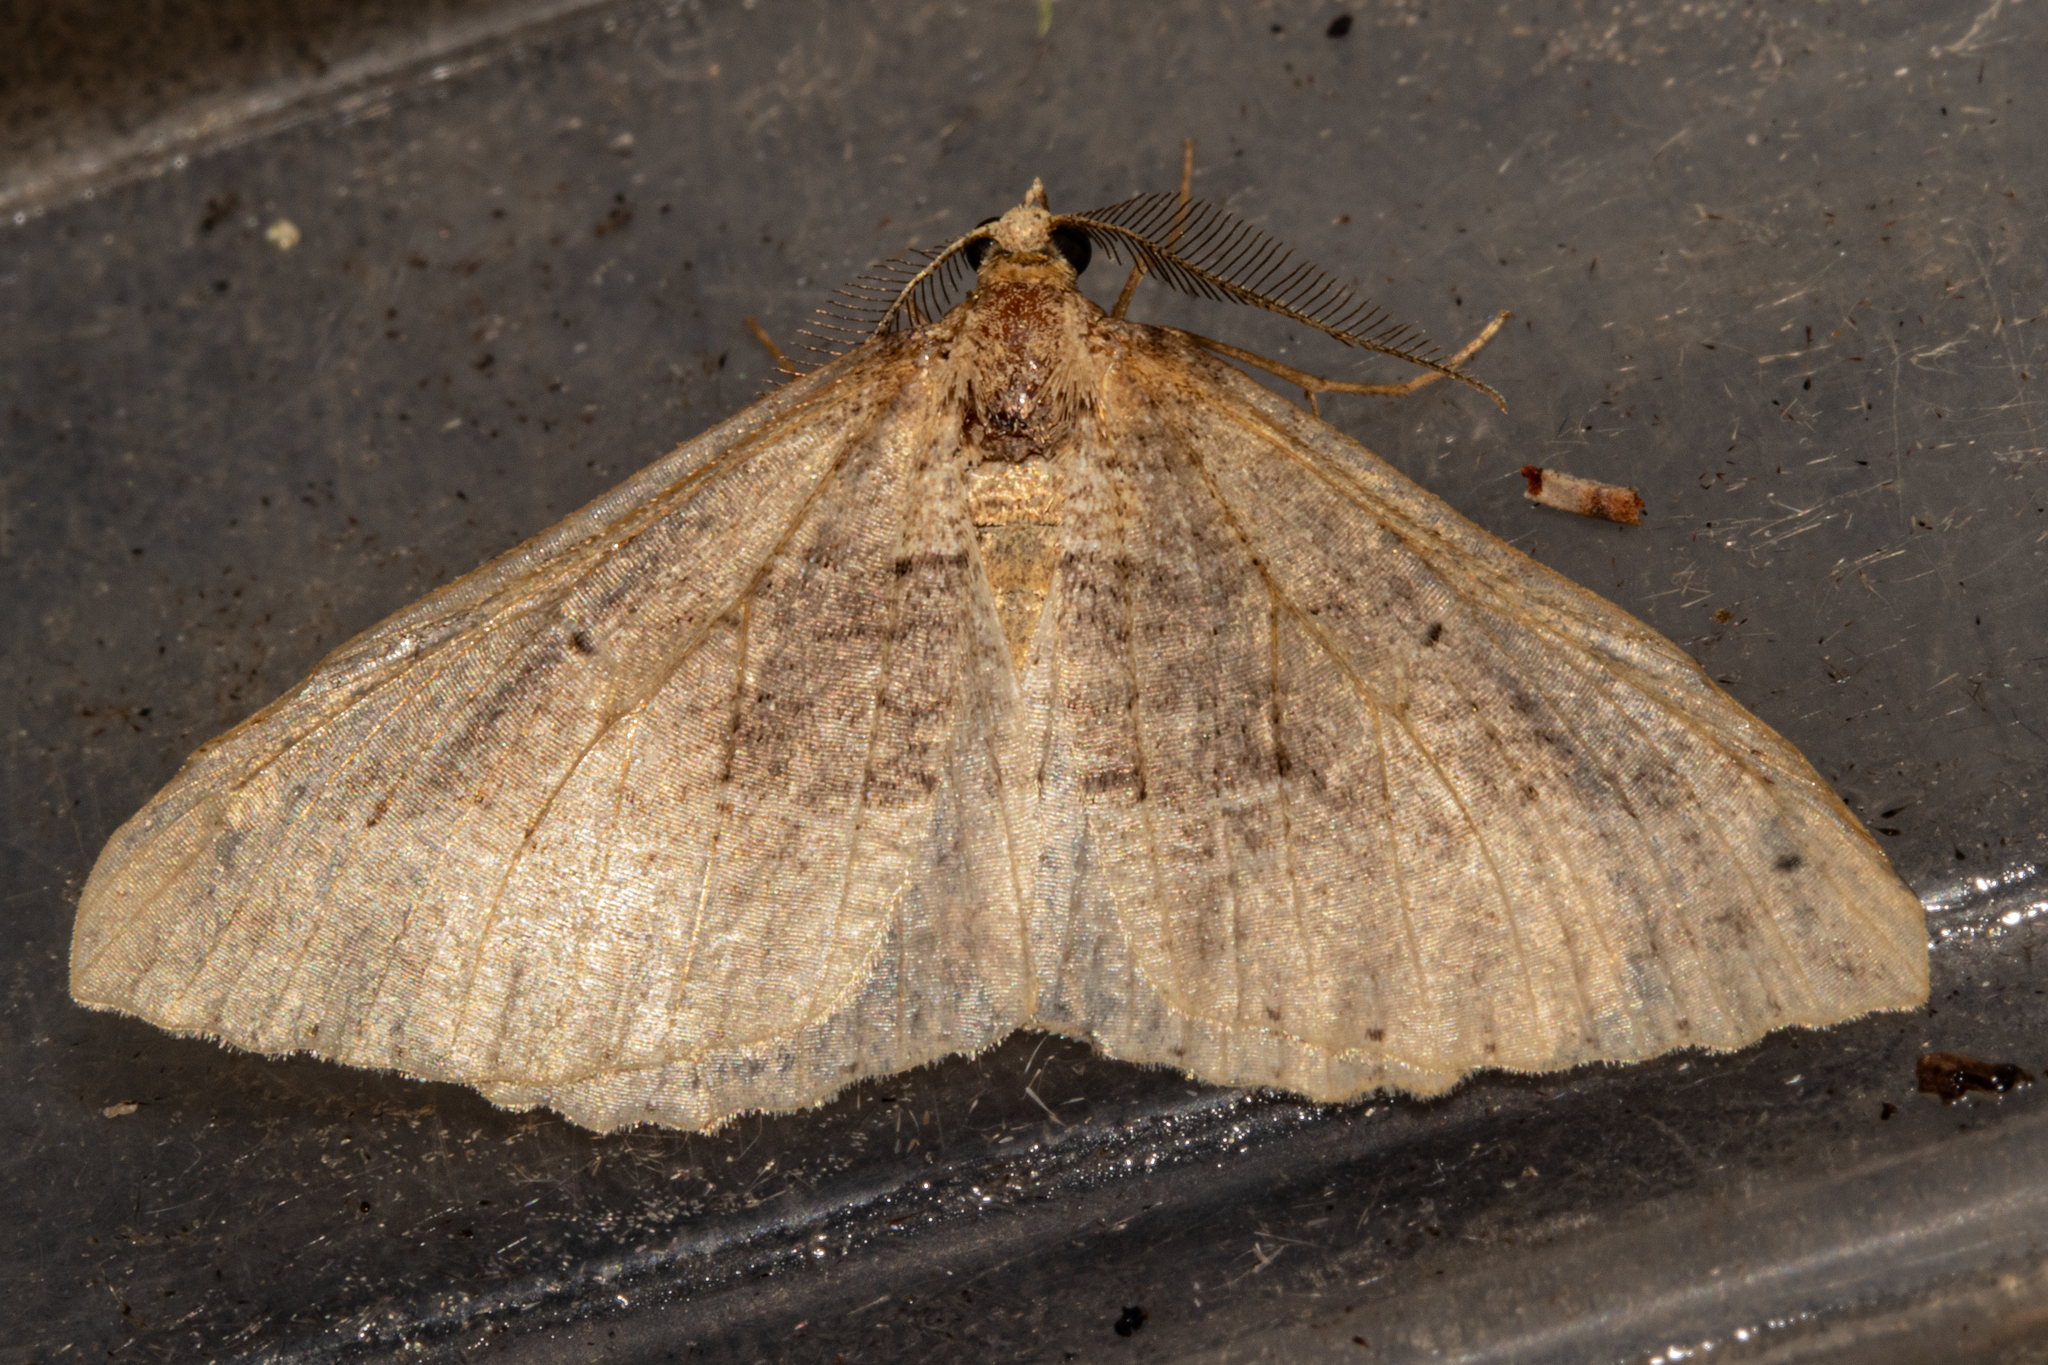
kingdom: Animalia
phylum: Arthropoda
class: Insecta
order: Lepidoptera
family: Geometridae
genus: Austrocidaria
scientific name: Austrocidaria stricta
